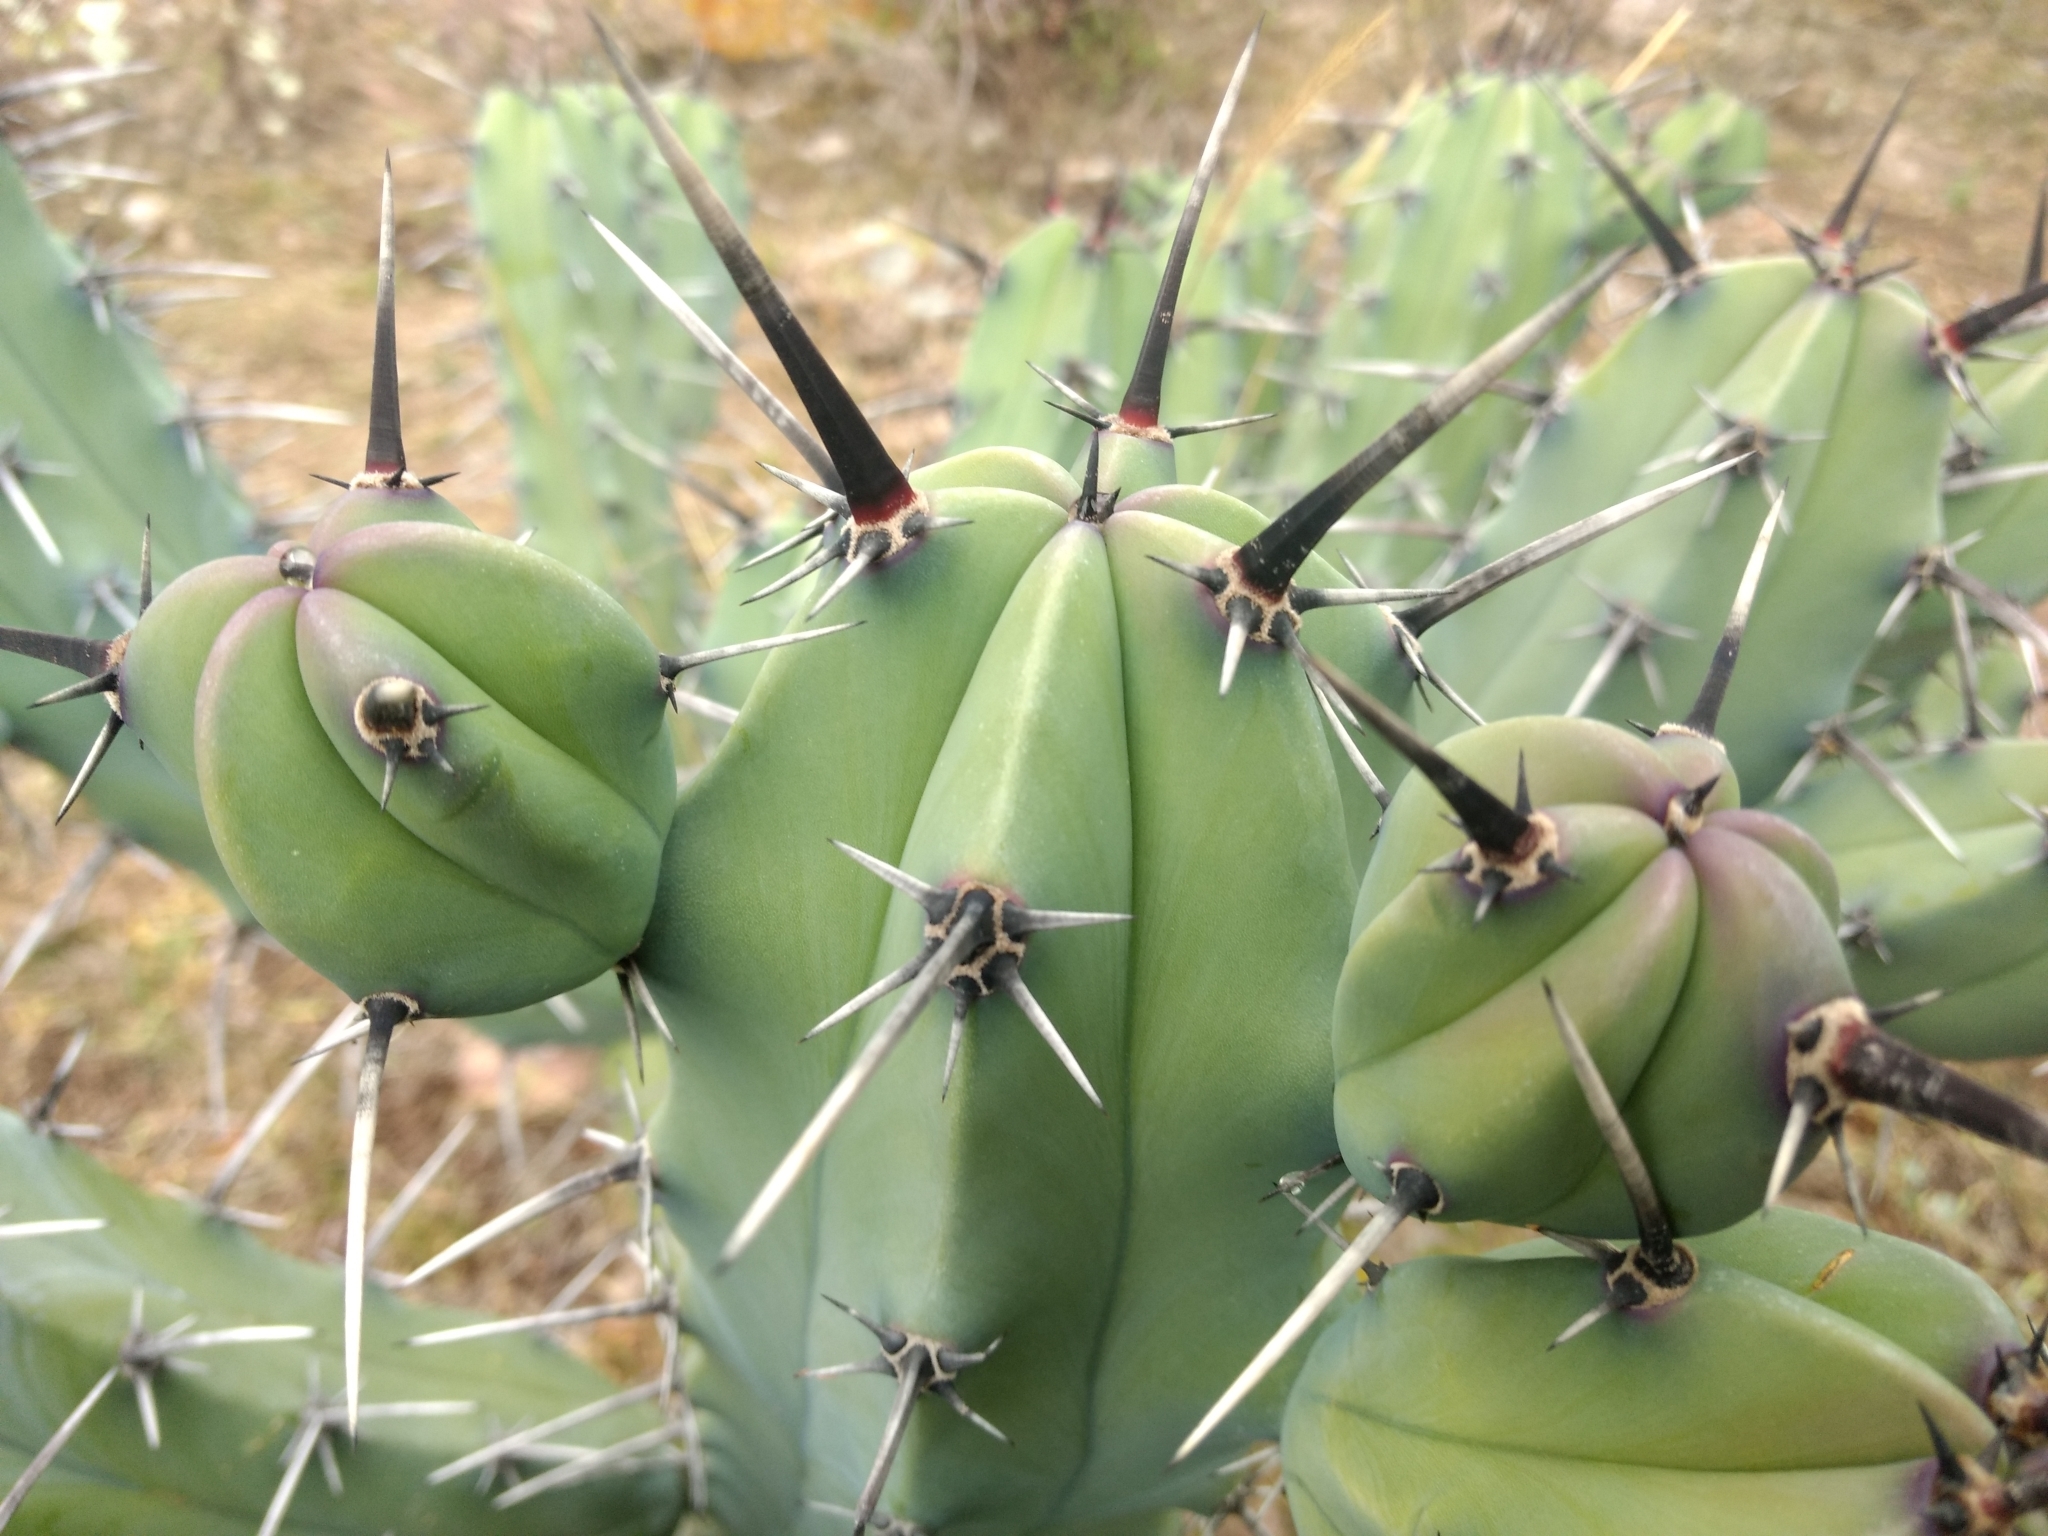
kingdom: Plantae
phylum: Tracheophyta
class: Magnoliopsida
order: Caryophyllales
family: Cactaceae
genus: Myrtillocactus
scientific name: Myrtillocactus geometrizans
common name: Bilberry cactus
